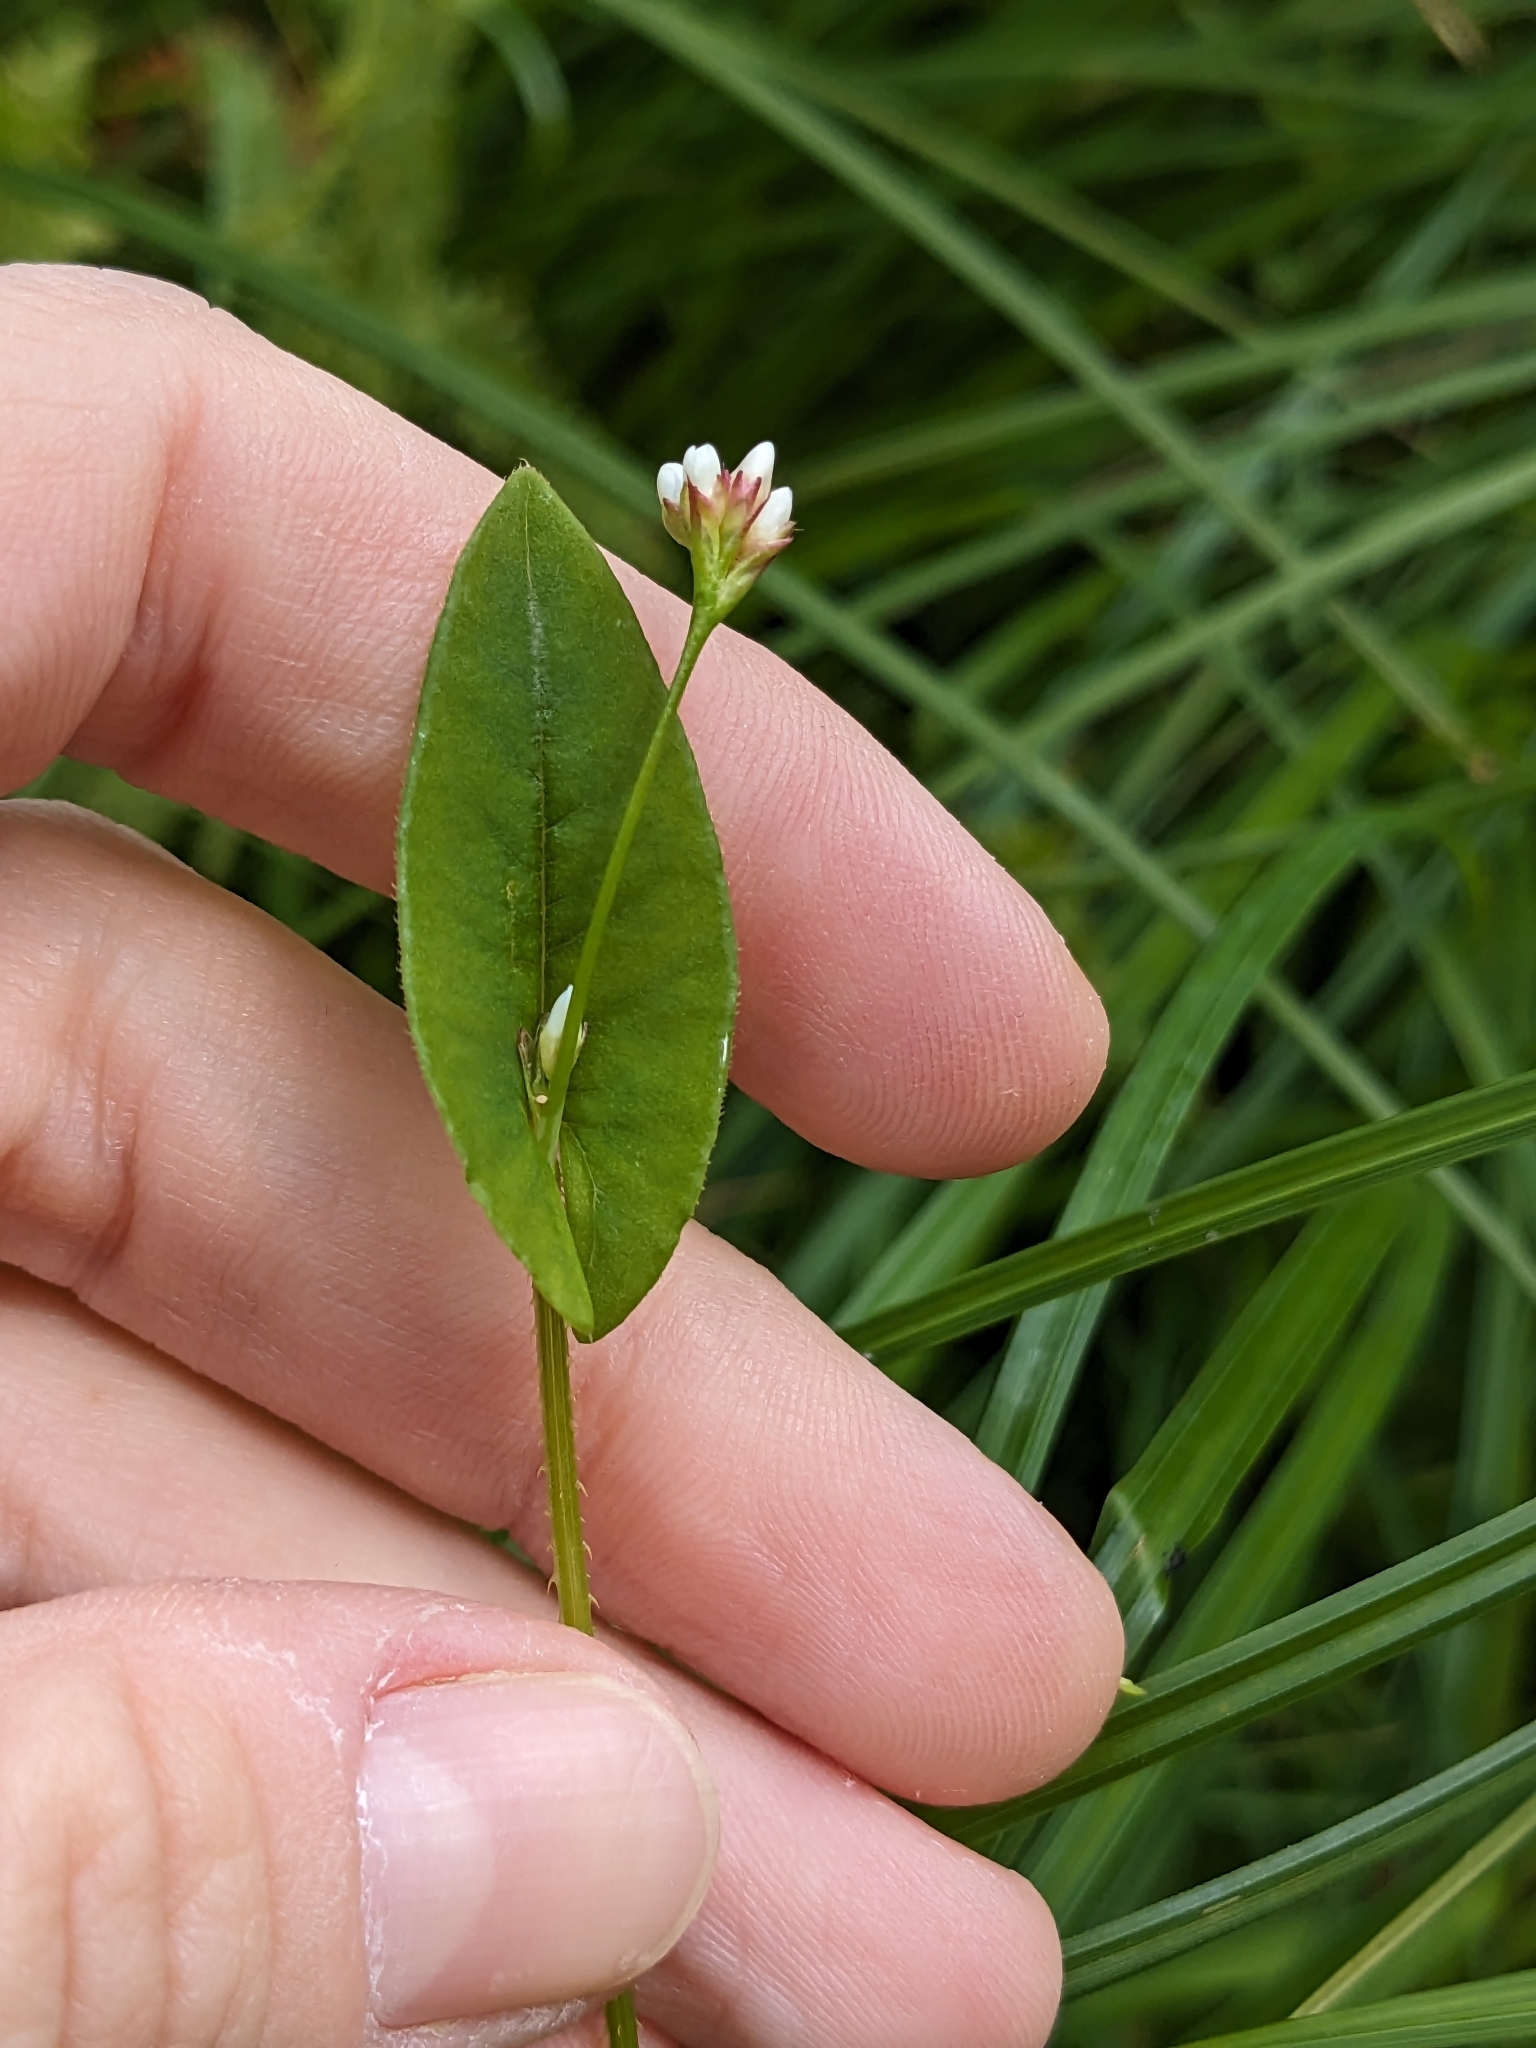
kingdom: Plantae
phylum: Tracheophyta
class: Magnoliopsida
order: Caryophyllales
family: Polygonaceae
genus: Persicaria
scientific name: Persicaria sagittata
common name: American tearthumb
